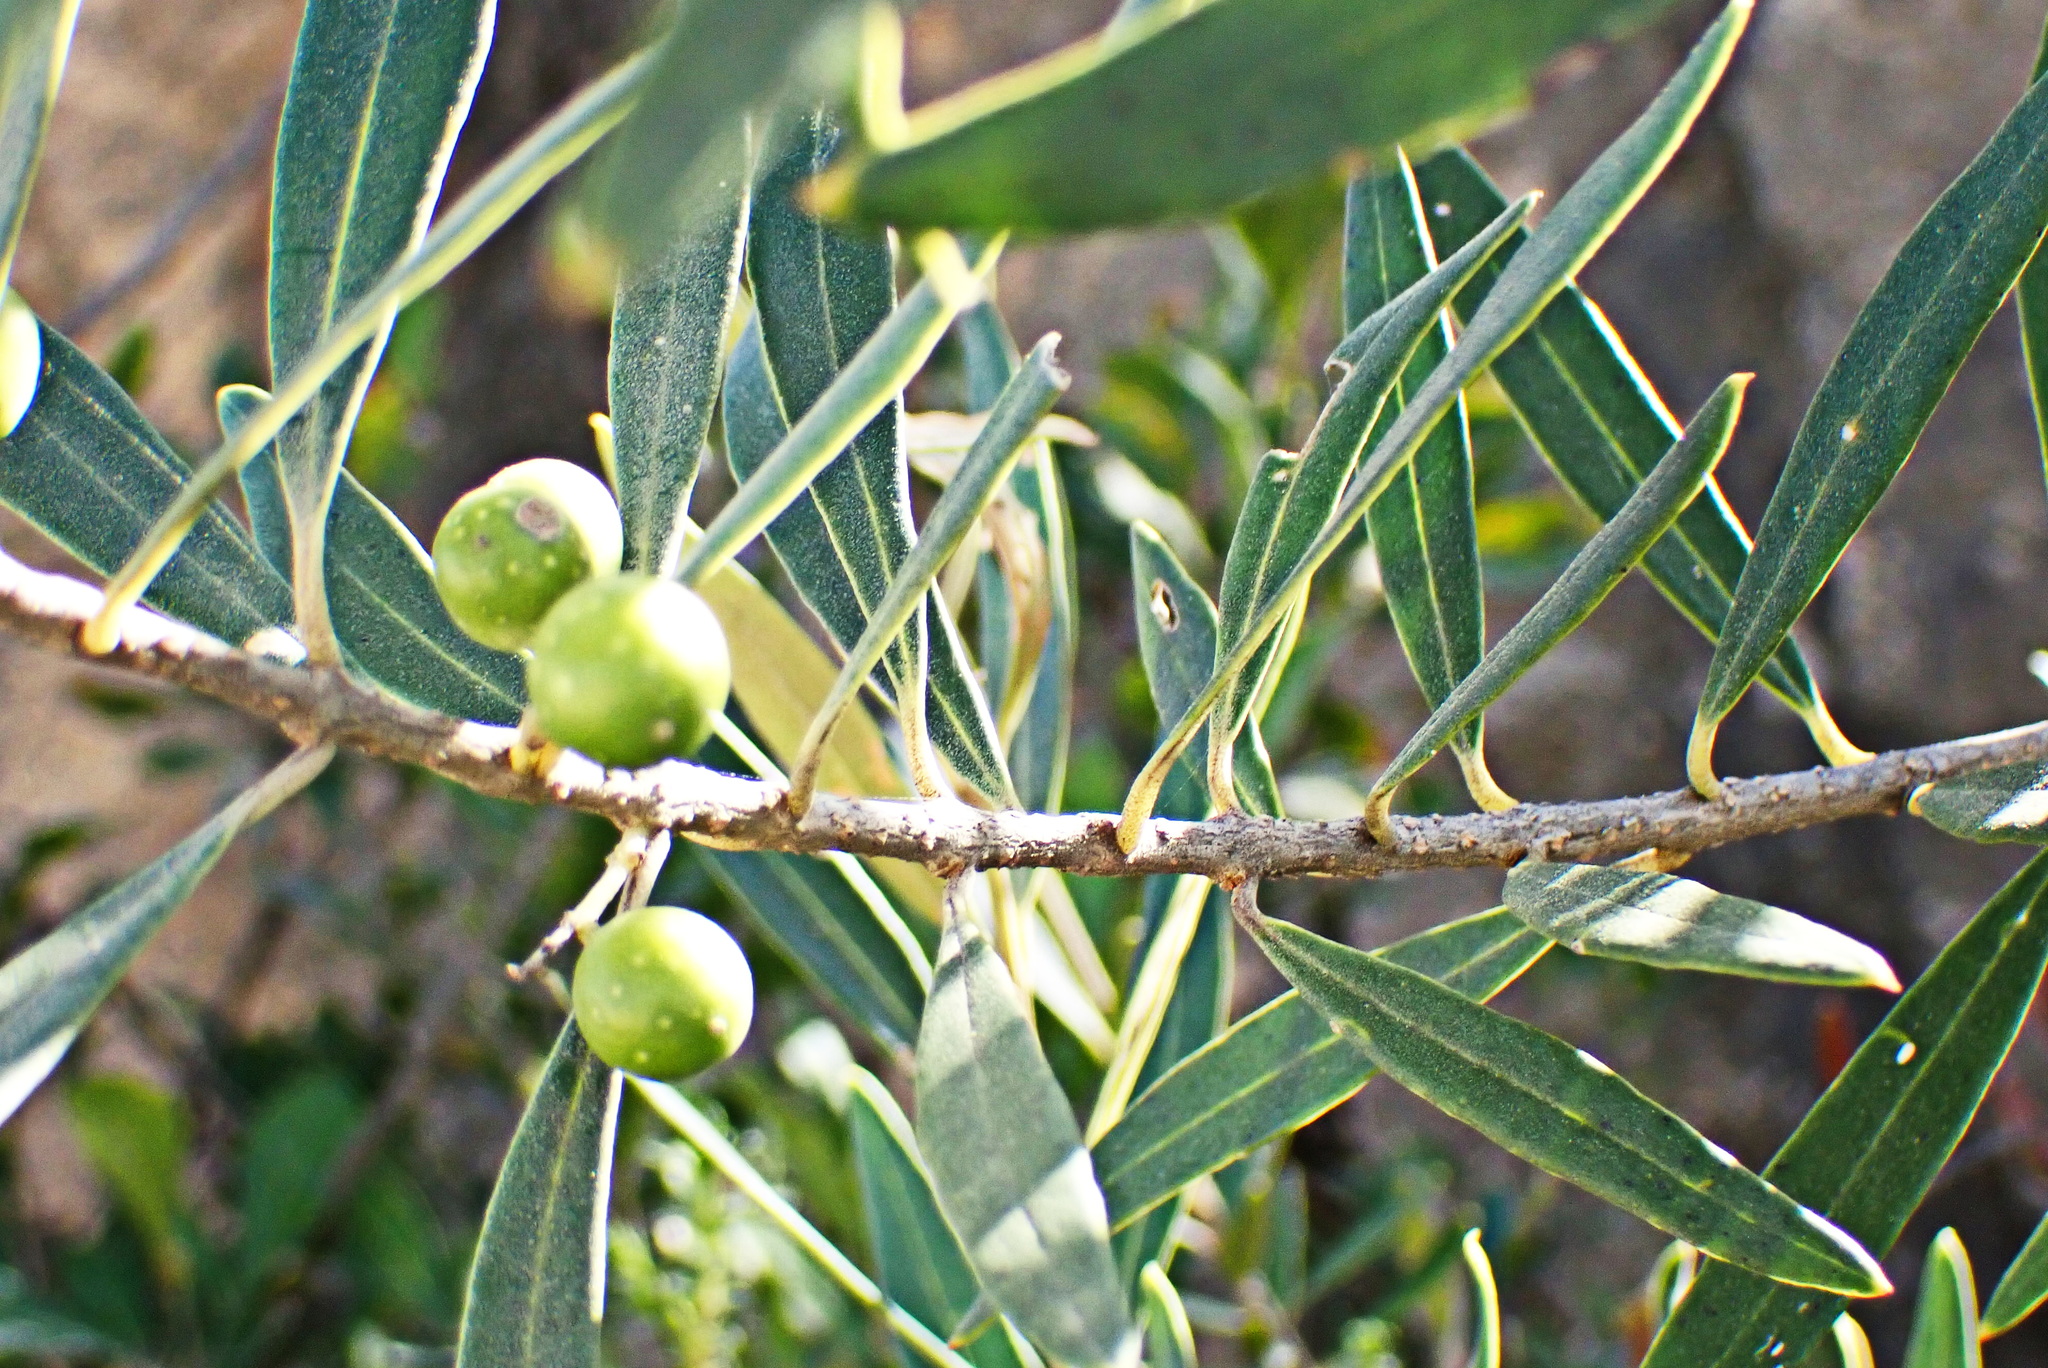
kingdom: Plantae
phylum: Tracheophyta
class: Magnoliopsida
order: Lamiales
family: Oleaceae
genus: Olea
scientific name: Olea europaea
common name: Olive
